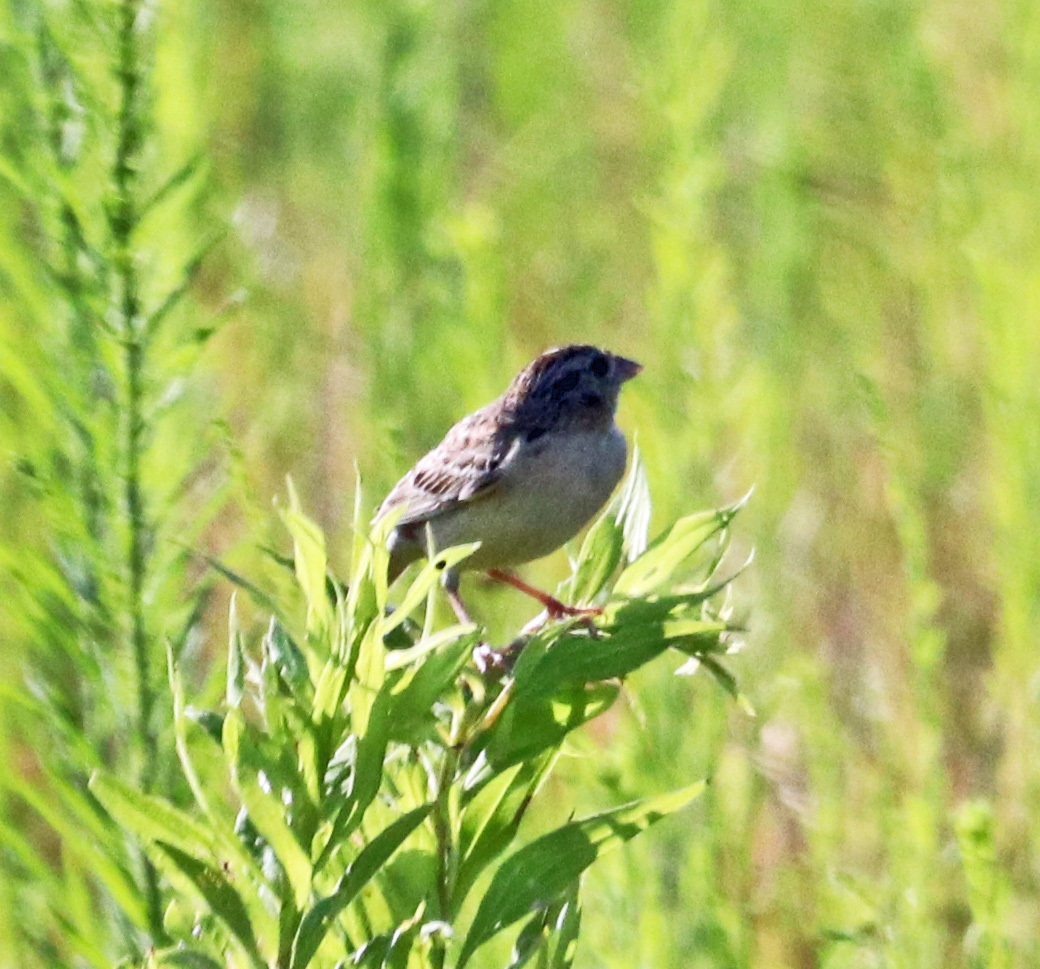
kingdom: Animalia
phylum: Chordata
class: Aves
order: Passeriformes
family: Passerellidae
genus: Ammodramus
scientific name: Ammodramus savannarum
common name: Grasshopper sparrow
